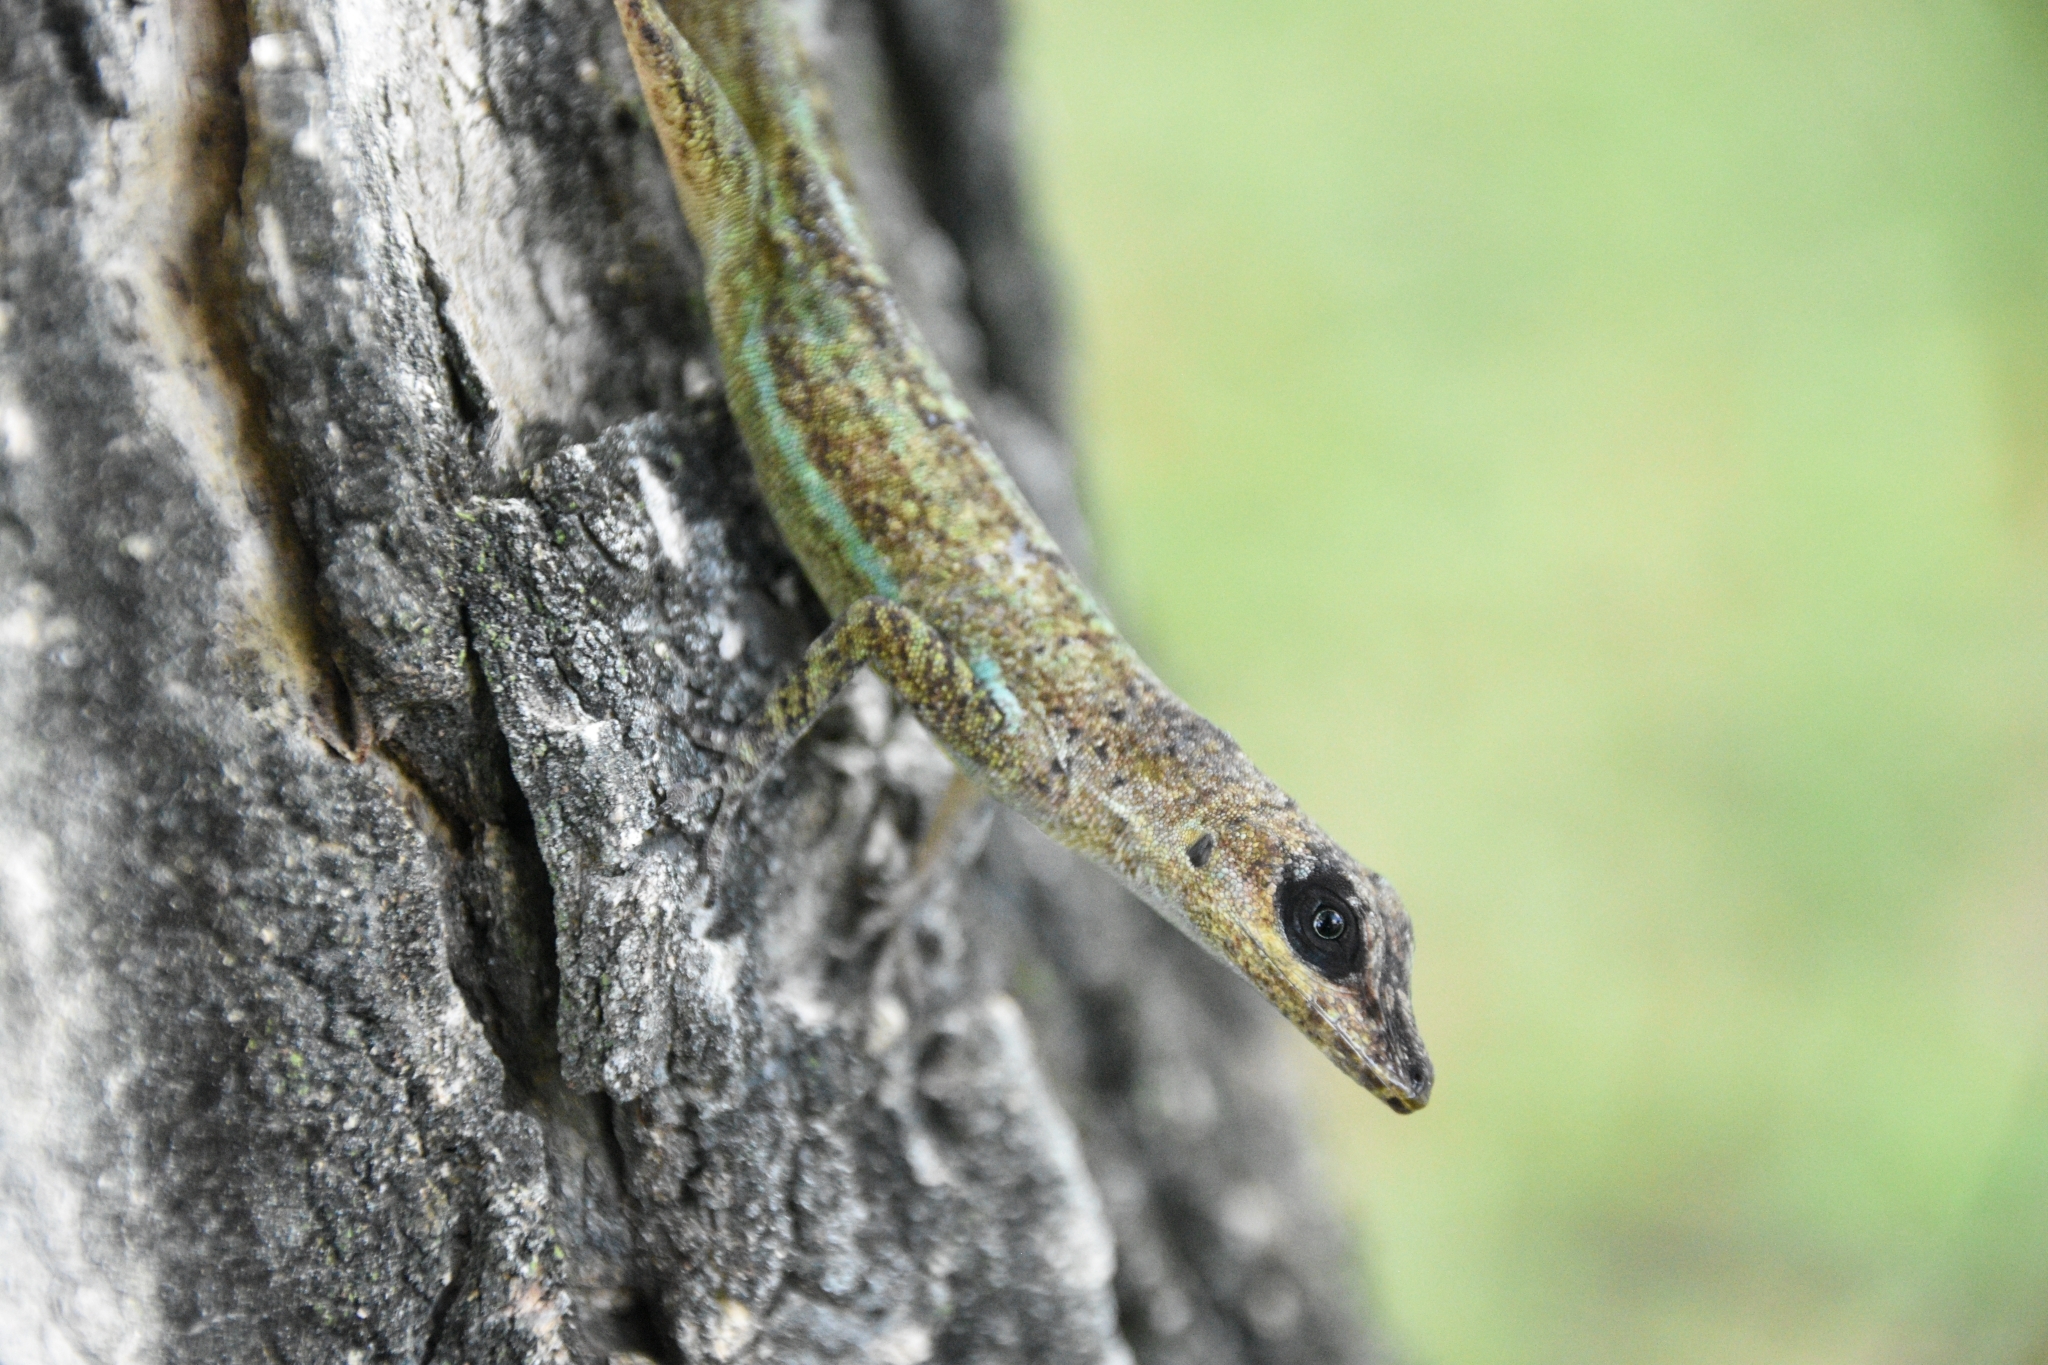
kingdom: Animalia
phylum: Chordata
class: Squamata
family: Dactyloidae
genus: Anolis
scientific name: Anolis extremus
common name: Barbados anole
